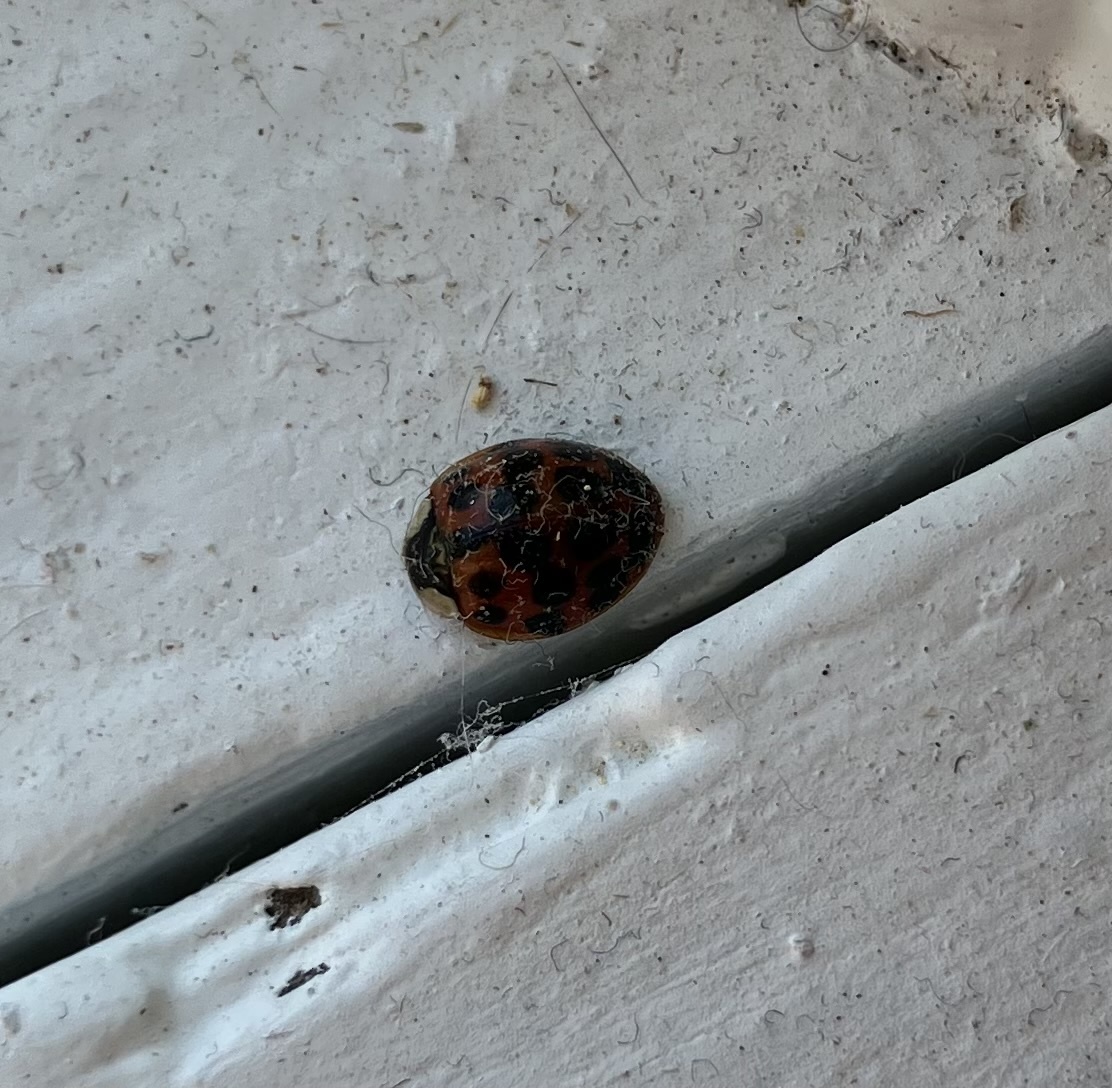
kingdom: Animalia
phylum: Arthropoda
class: Insecta
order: Coleoptera
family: Coccinellidae
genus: Harmonia
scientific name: Harmonia axyridis
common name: Harlequin ladybird
